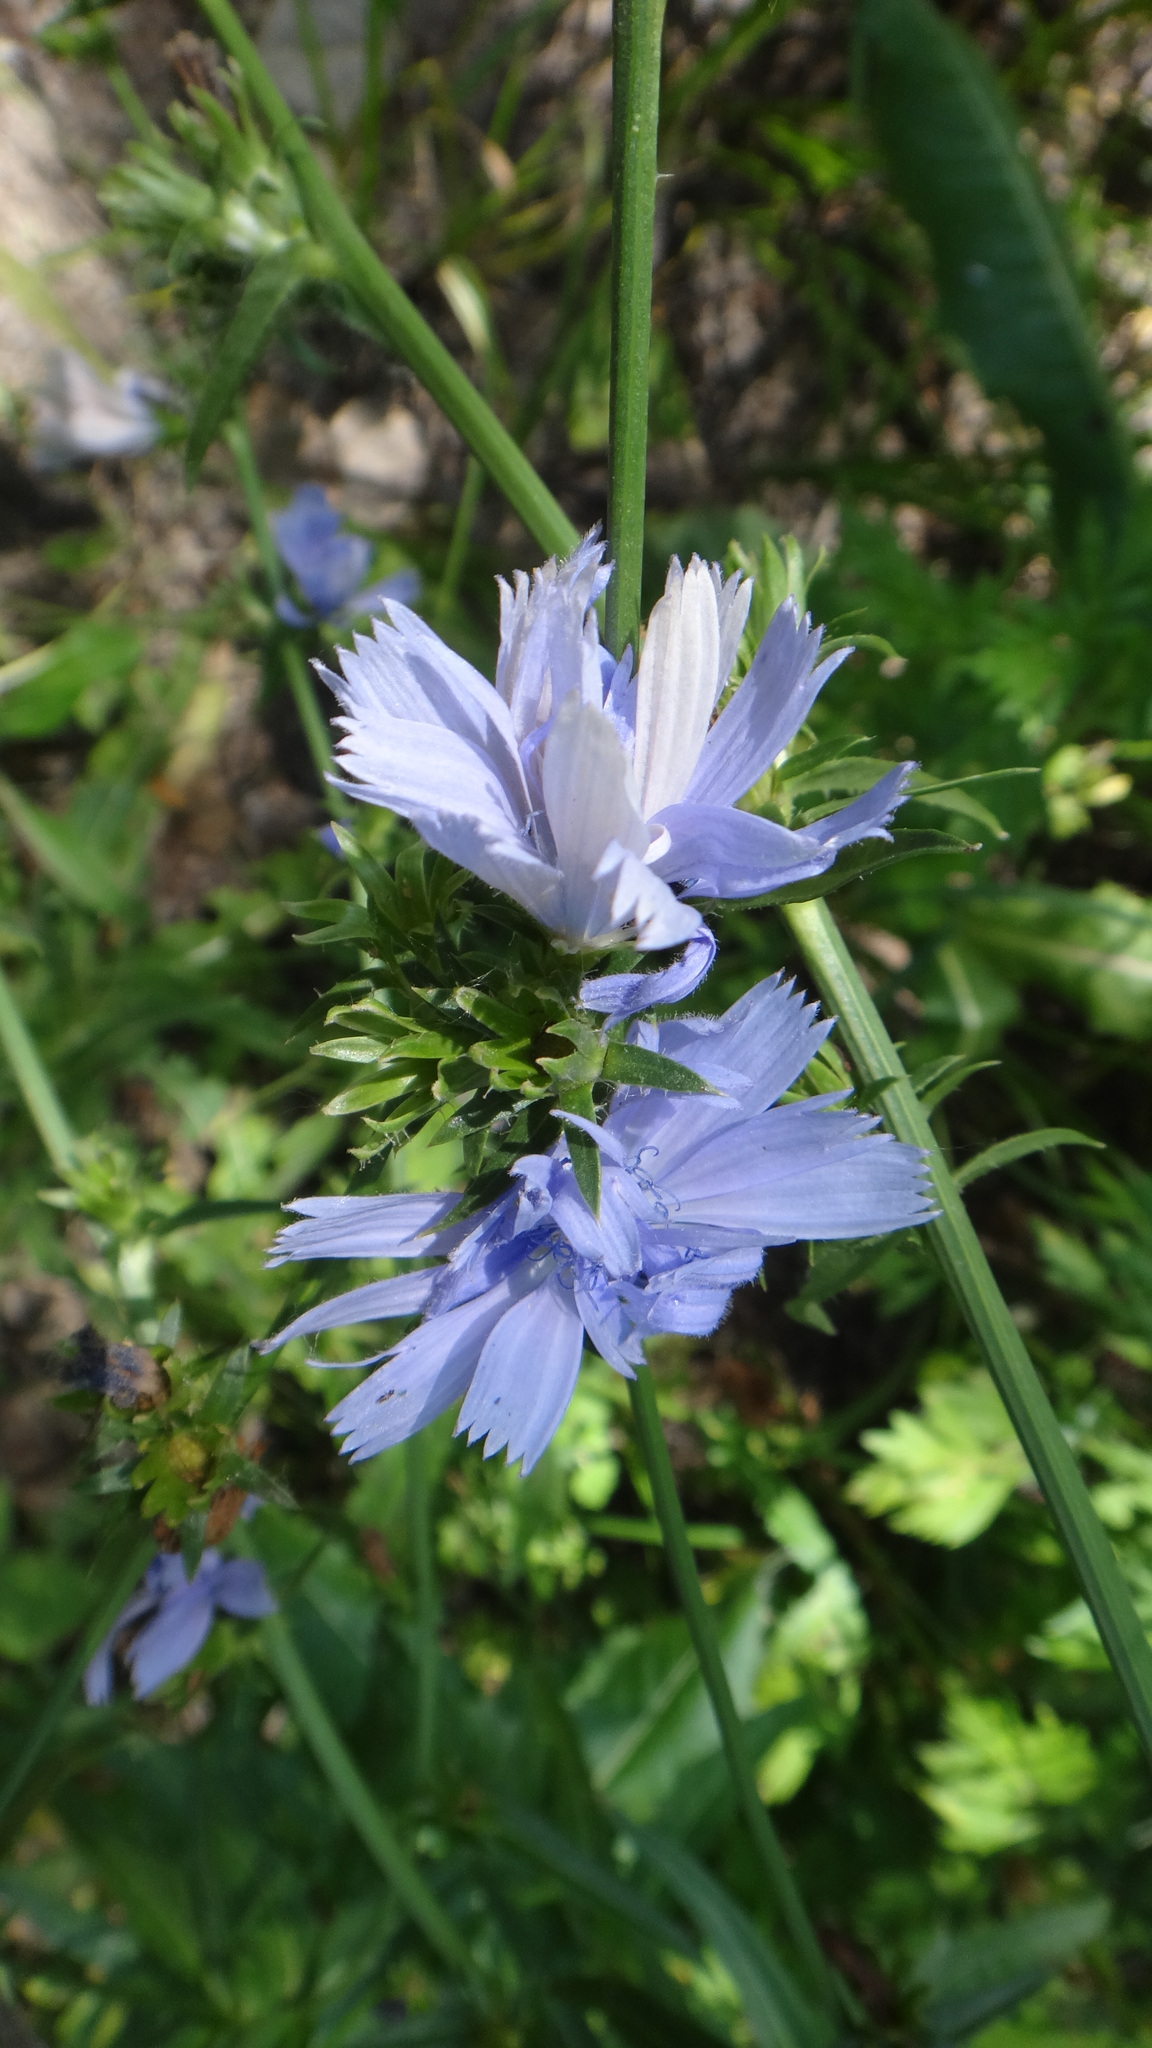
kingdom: Plantae
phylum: Tracheophyta
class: Magnoliopsida
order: Asterales
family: Asteraceae
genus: Cichorium
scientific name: Cichorium intybus
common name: Chicory
